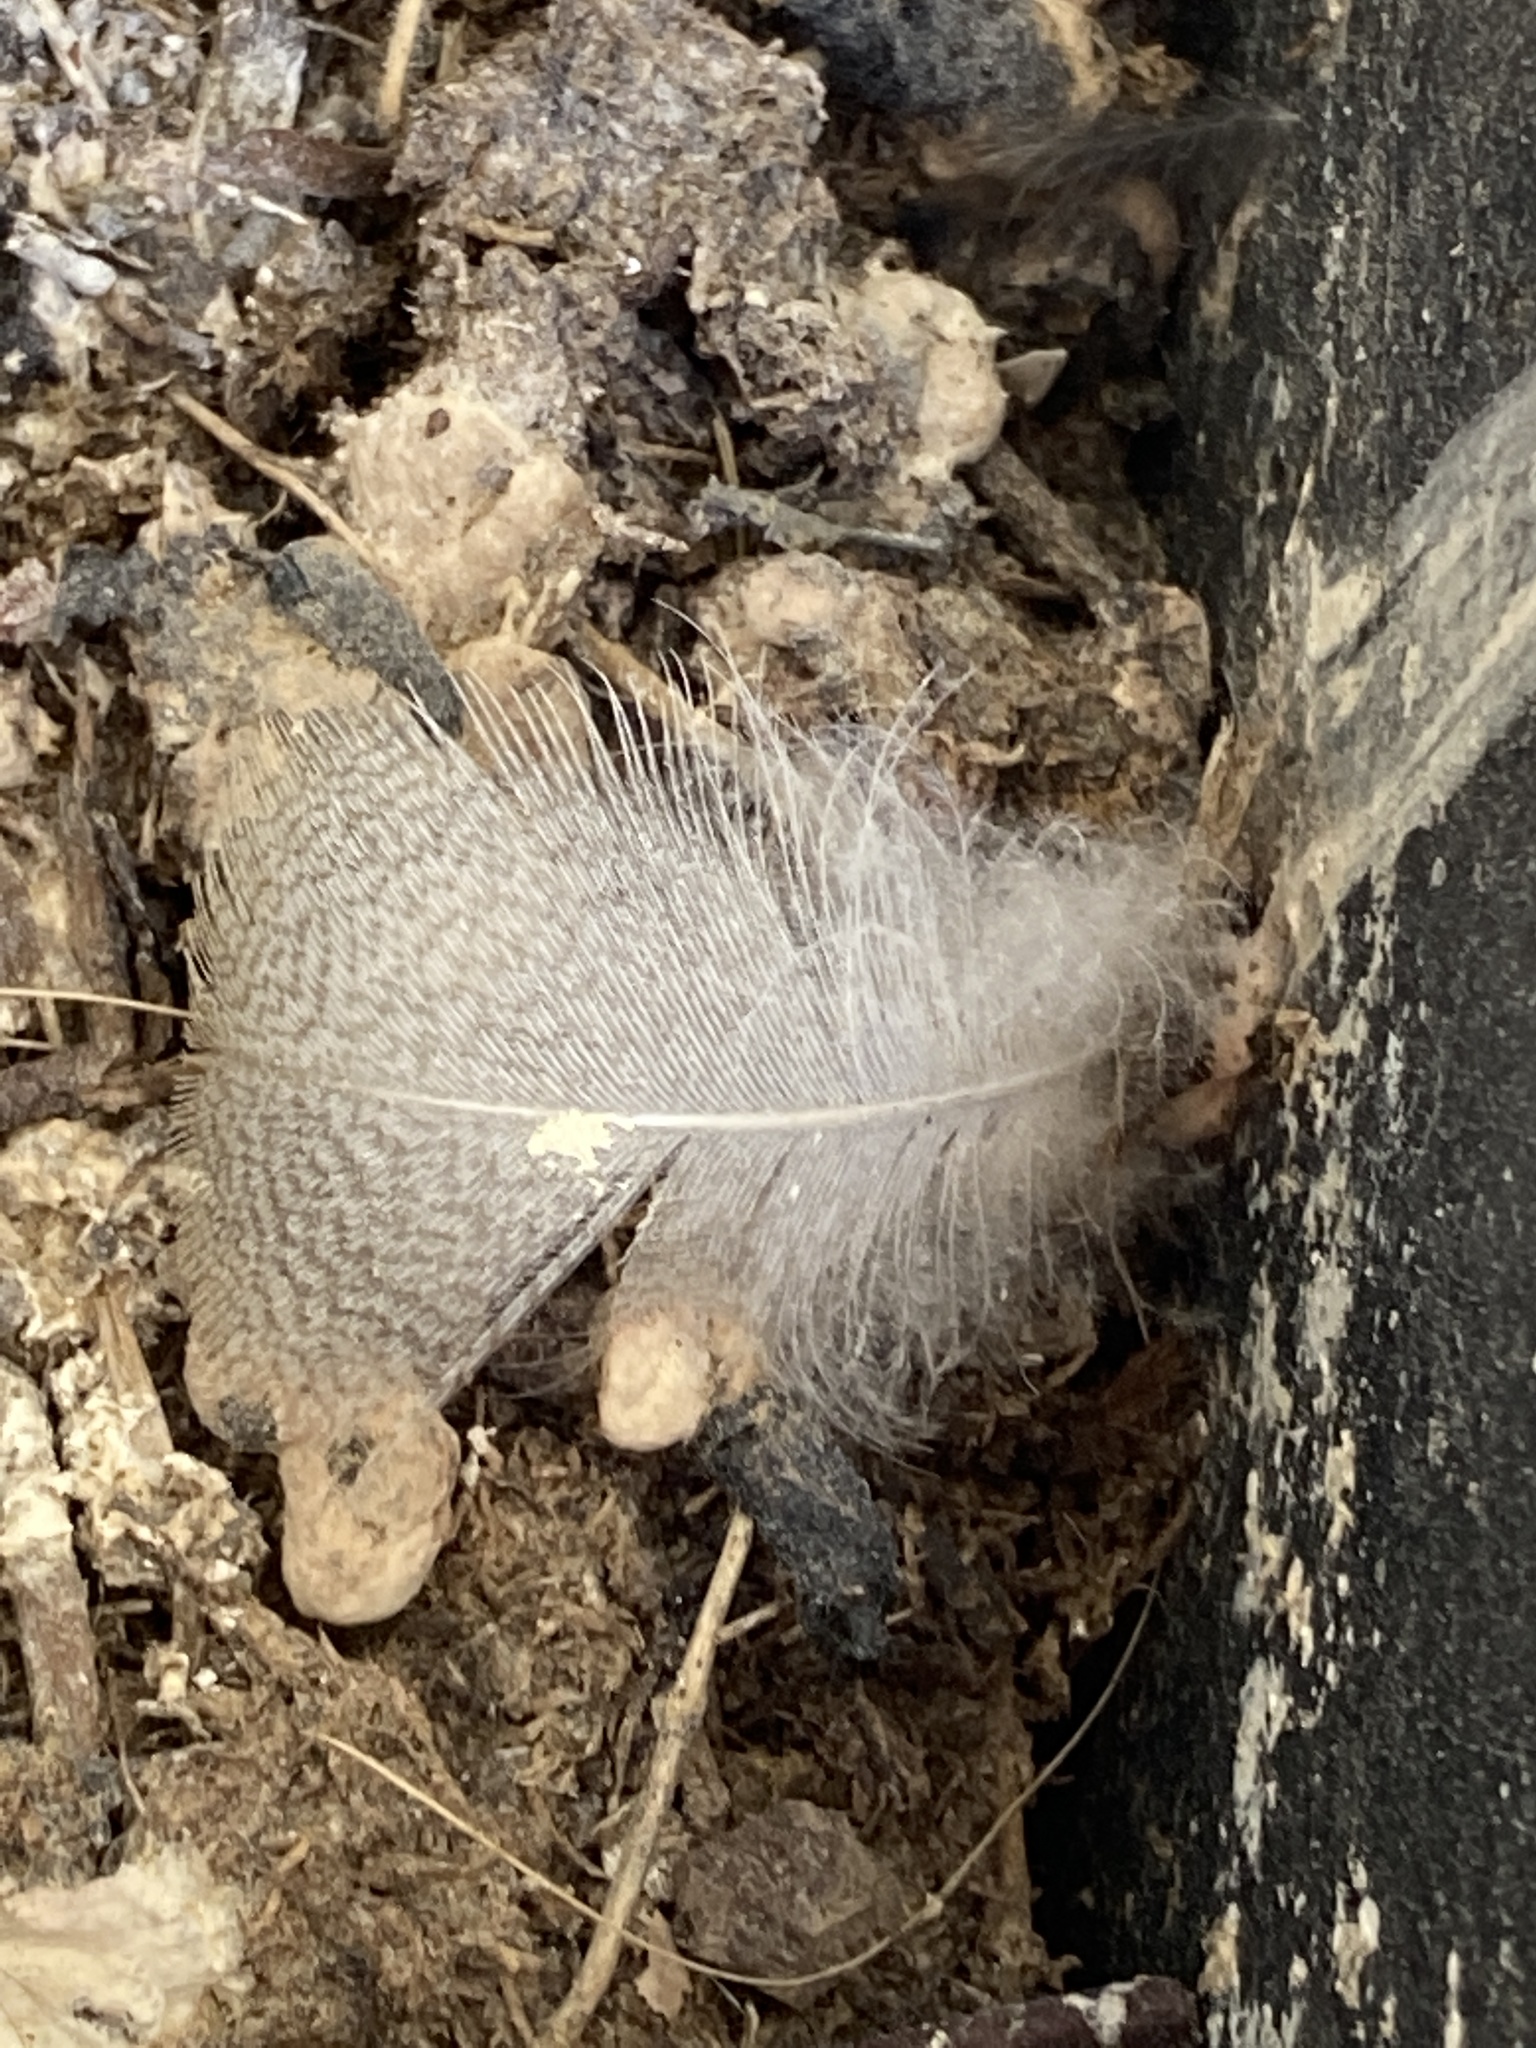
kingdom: Animalia
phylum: Chordata
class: Aves
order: Passeriformes
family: Hirundinidae
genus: Hirundo
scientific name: Hirundo rustica
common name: Barn swallow
